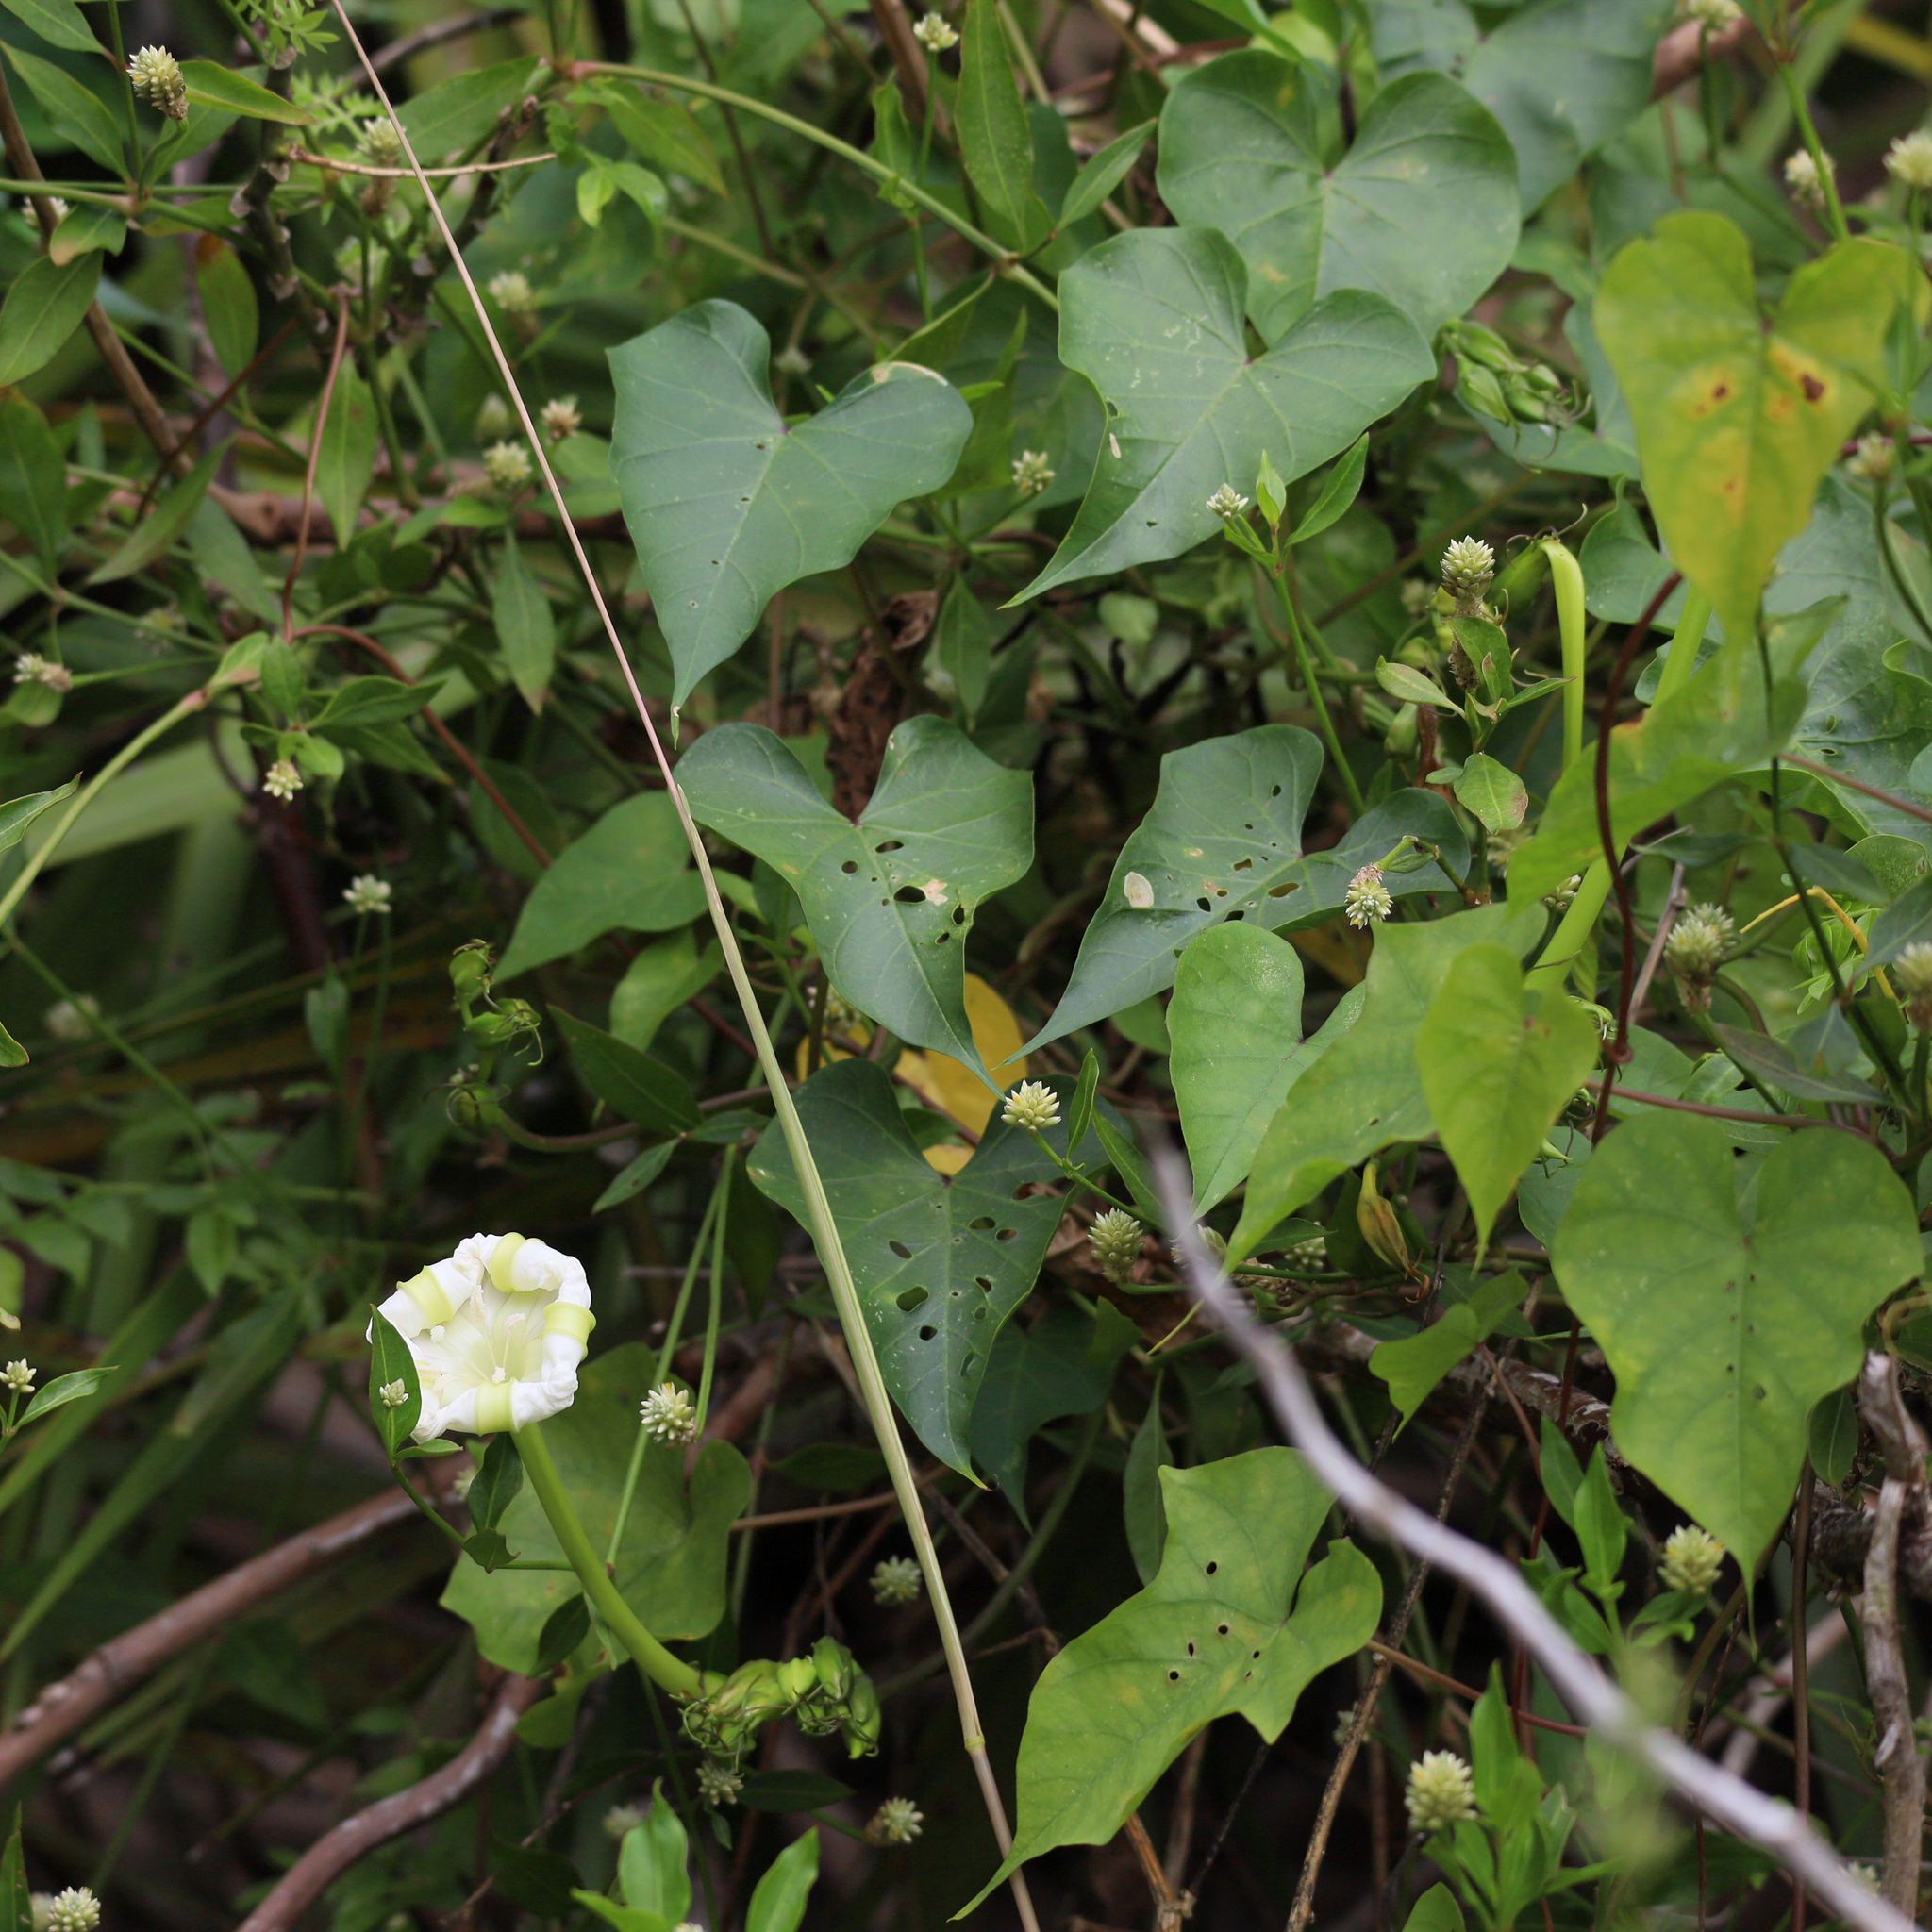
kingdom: Plantae
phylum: Tracheophyta
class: Magnoliopsida
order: Solanales
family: Convolvulaceae
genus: Ipomoea
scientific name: Ipomoea alba
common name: Moonflower
